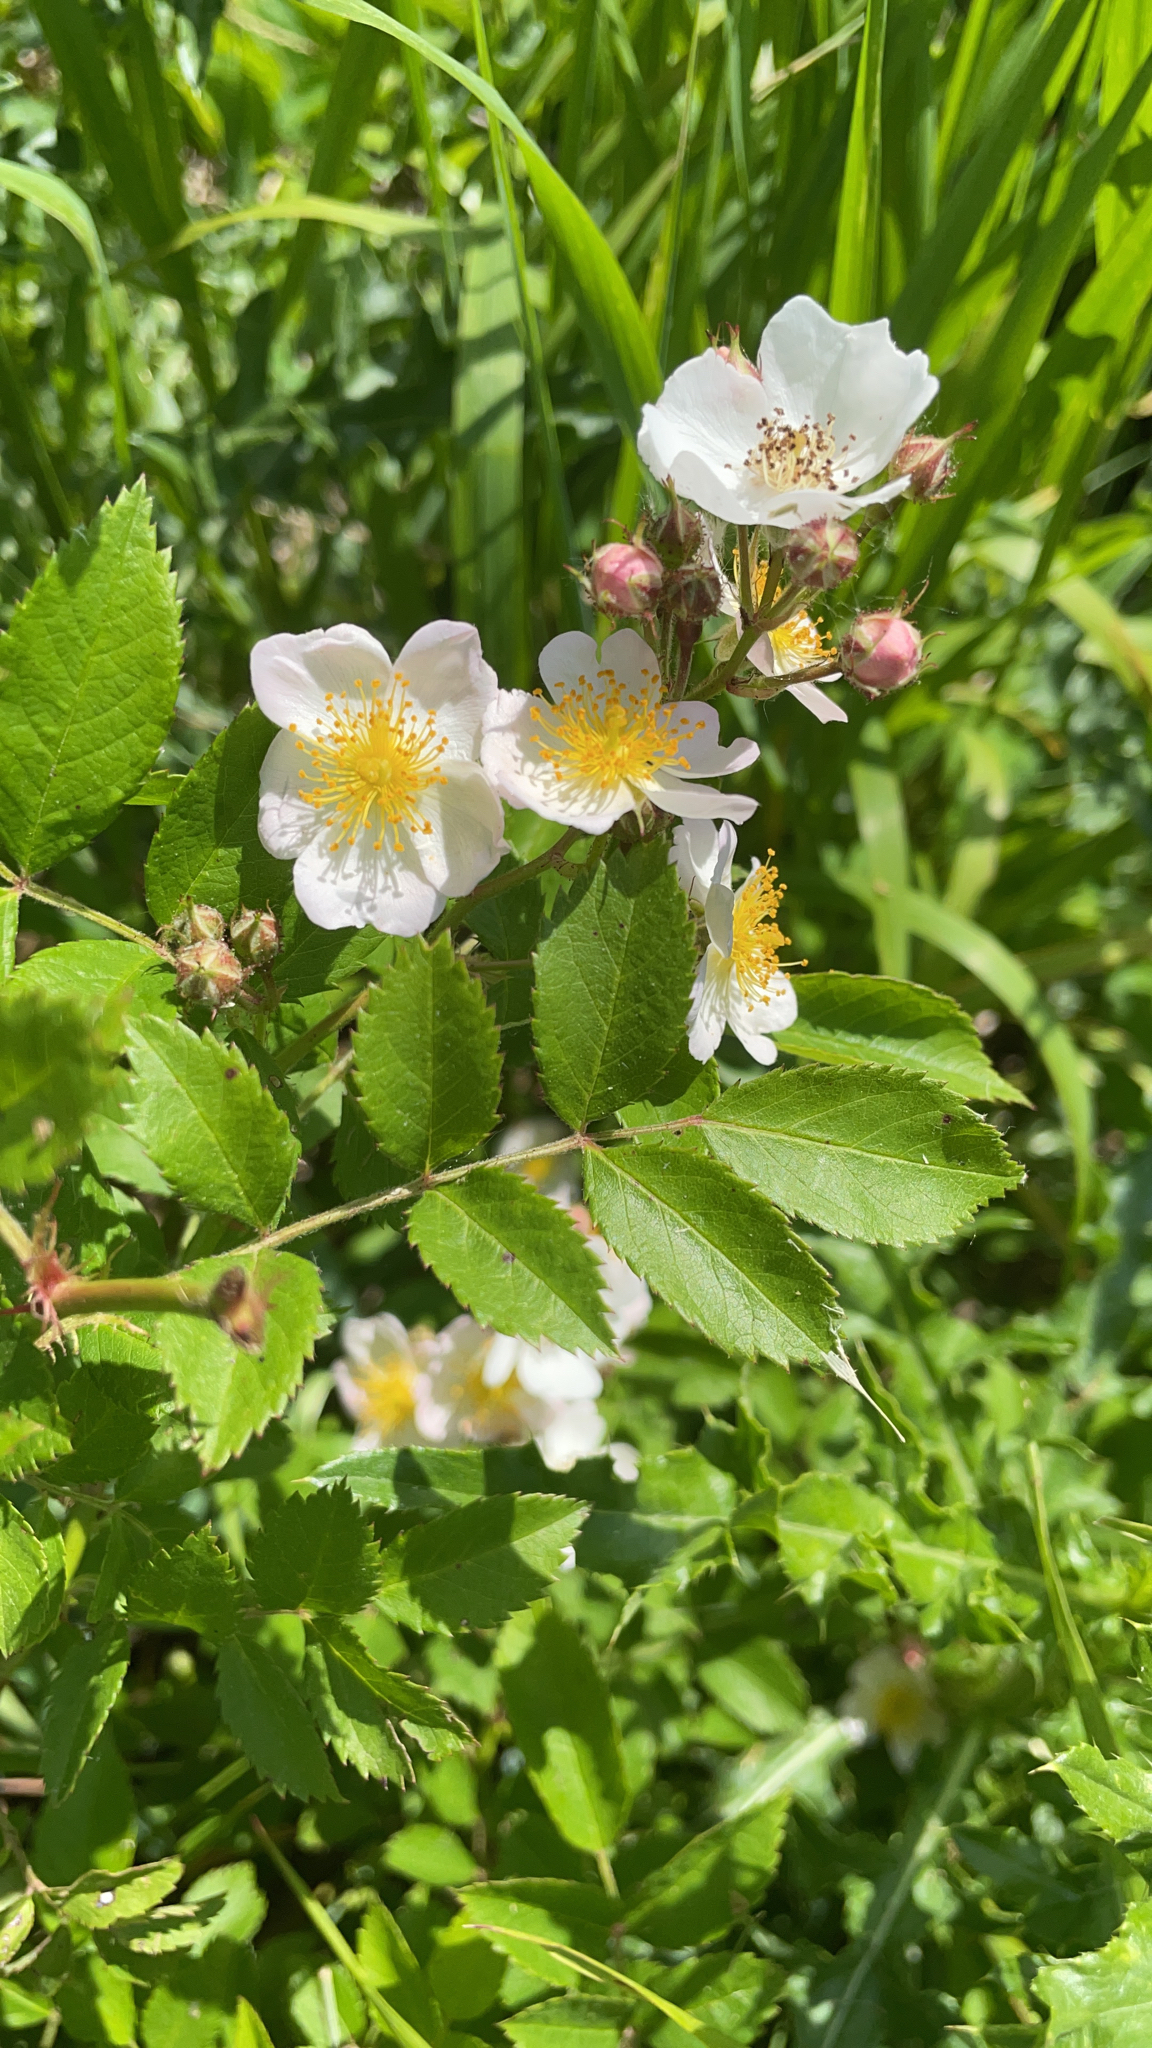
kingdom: Plantae
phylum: Tracheophyta
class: Magnoliopsida
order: Rosales
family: Rosaceae
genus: Rosa
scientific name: Rosa multiflora
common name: Multiflora rose
